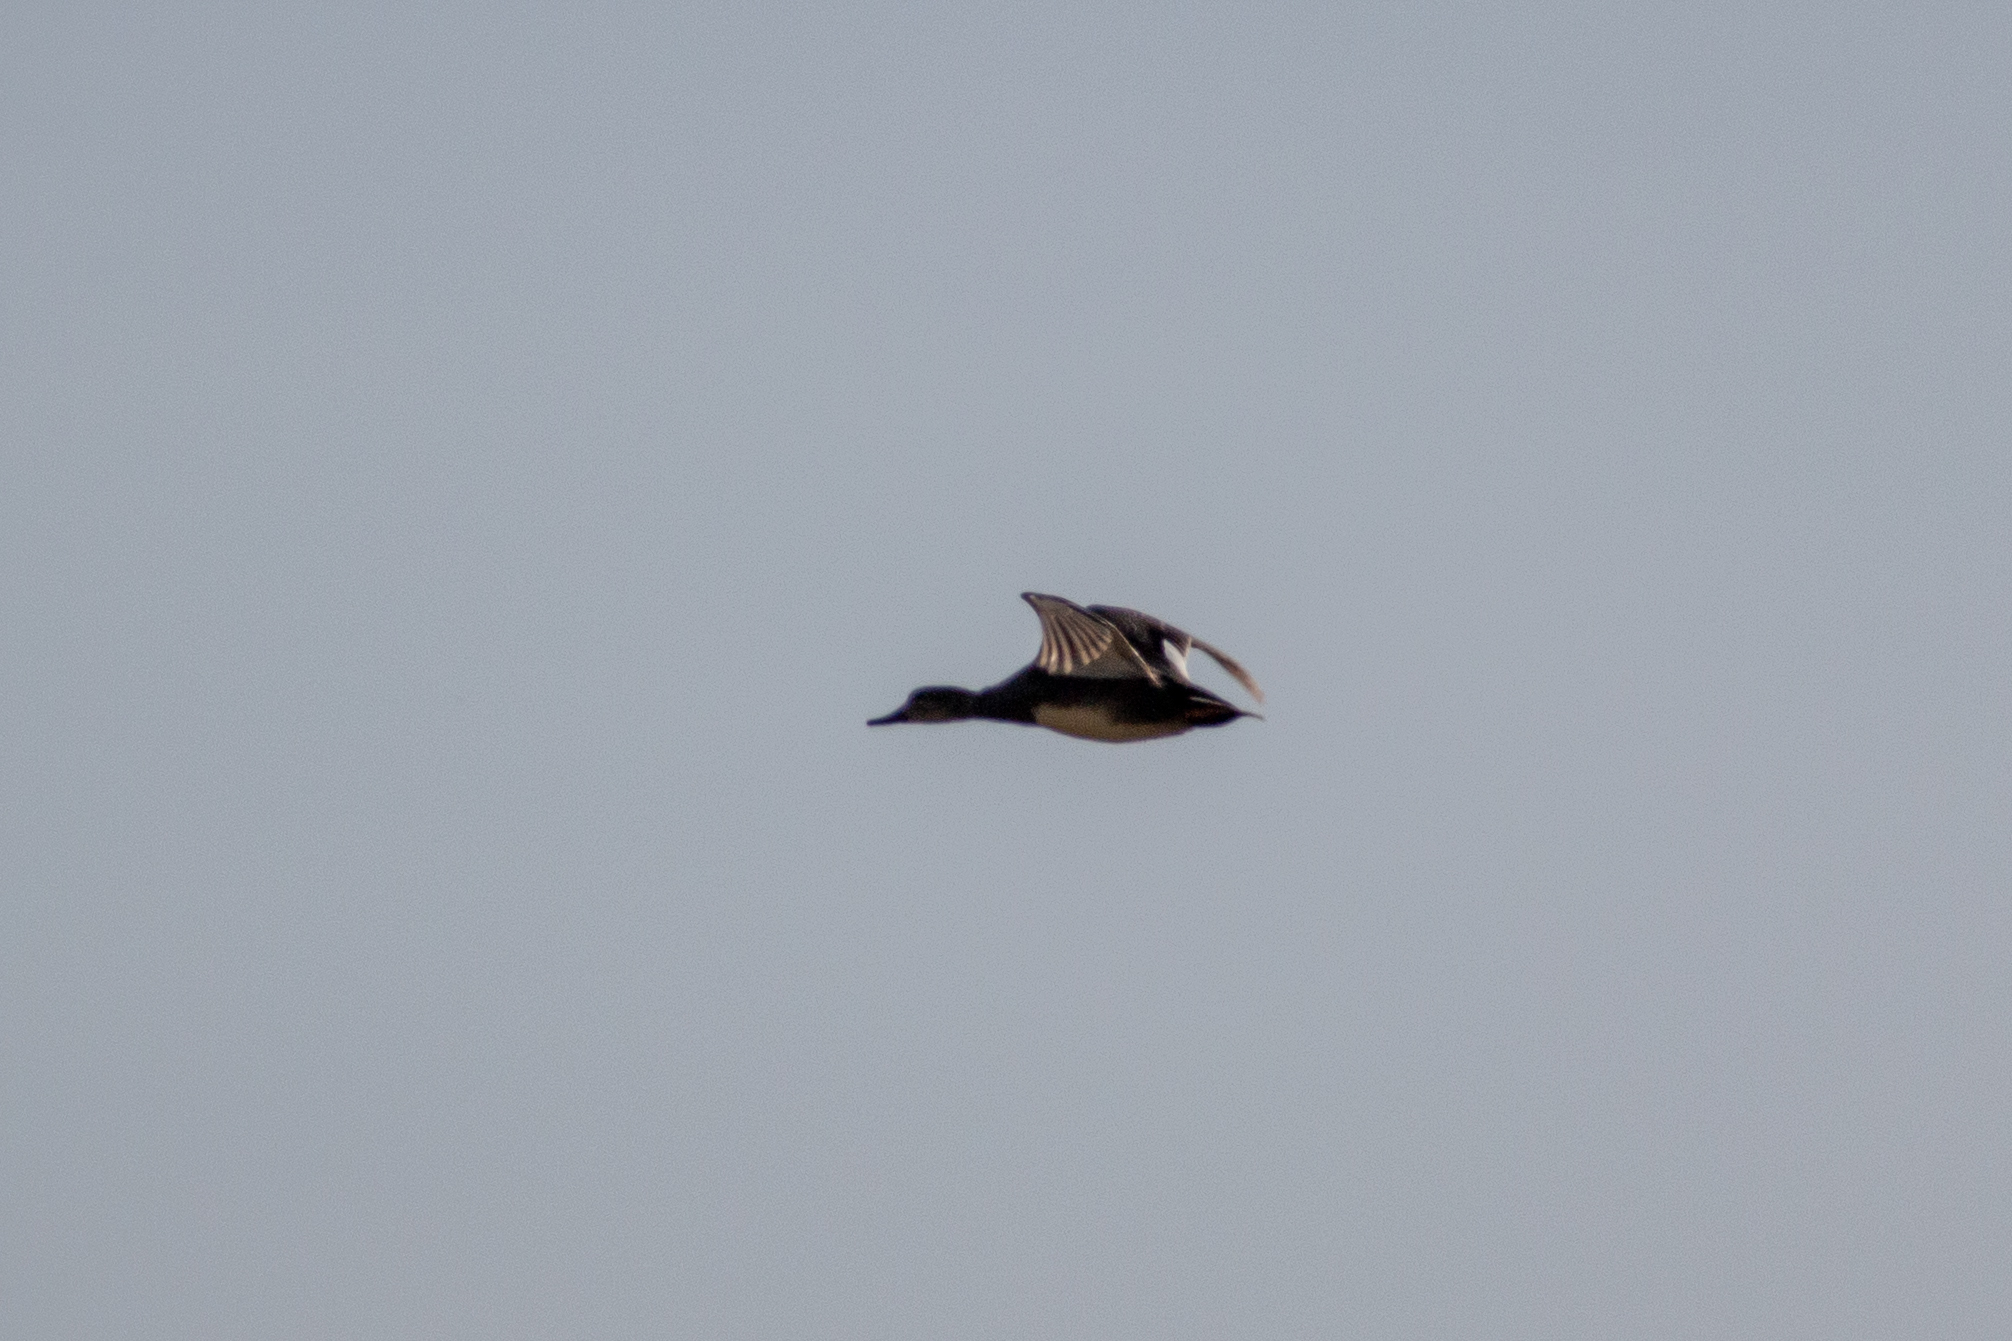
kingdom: Animalia
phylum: Chordata
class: Aves
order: Anseriformes
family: Anatidae
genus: Mareca
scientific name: Mareca strepera
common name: Gadwall
